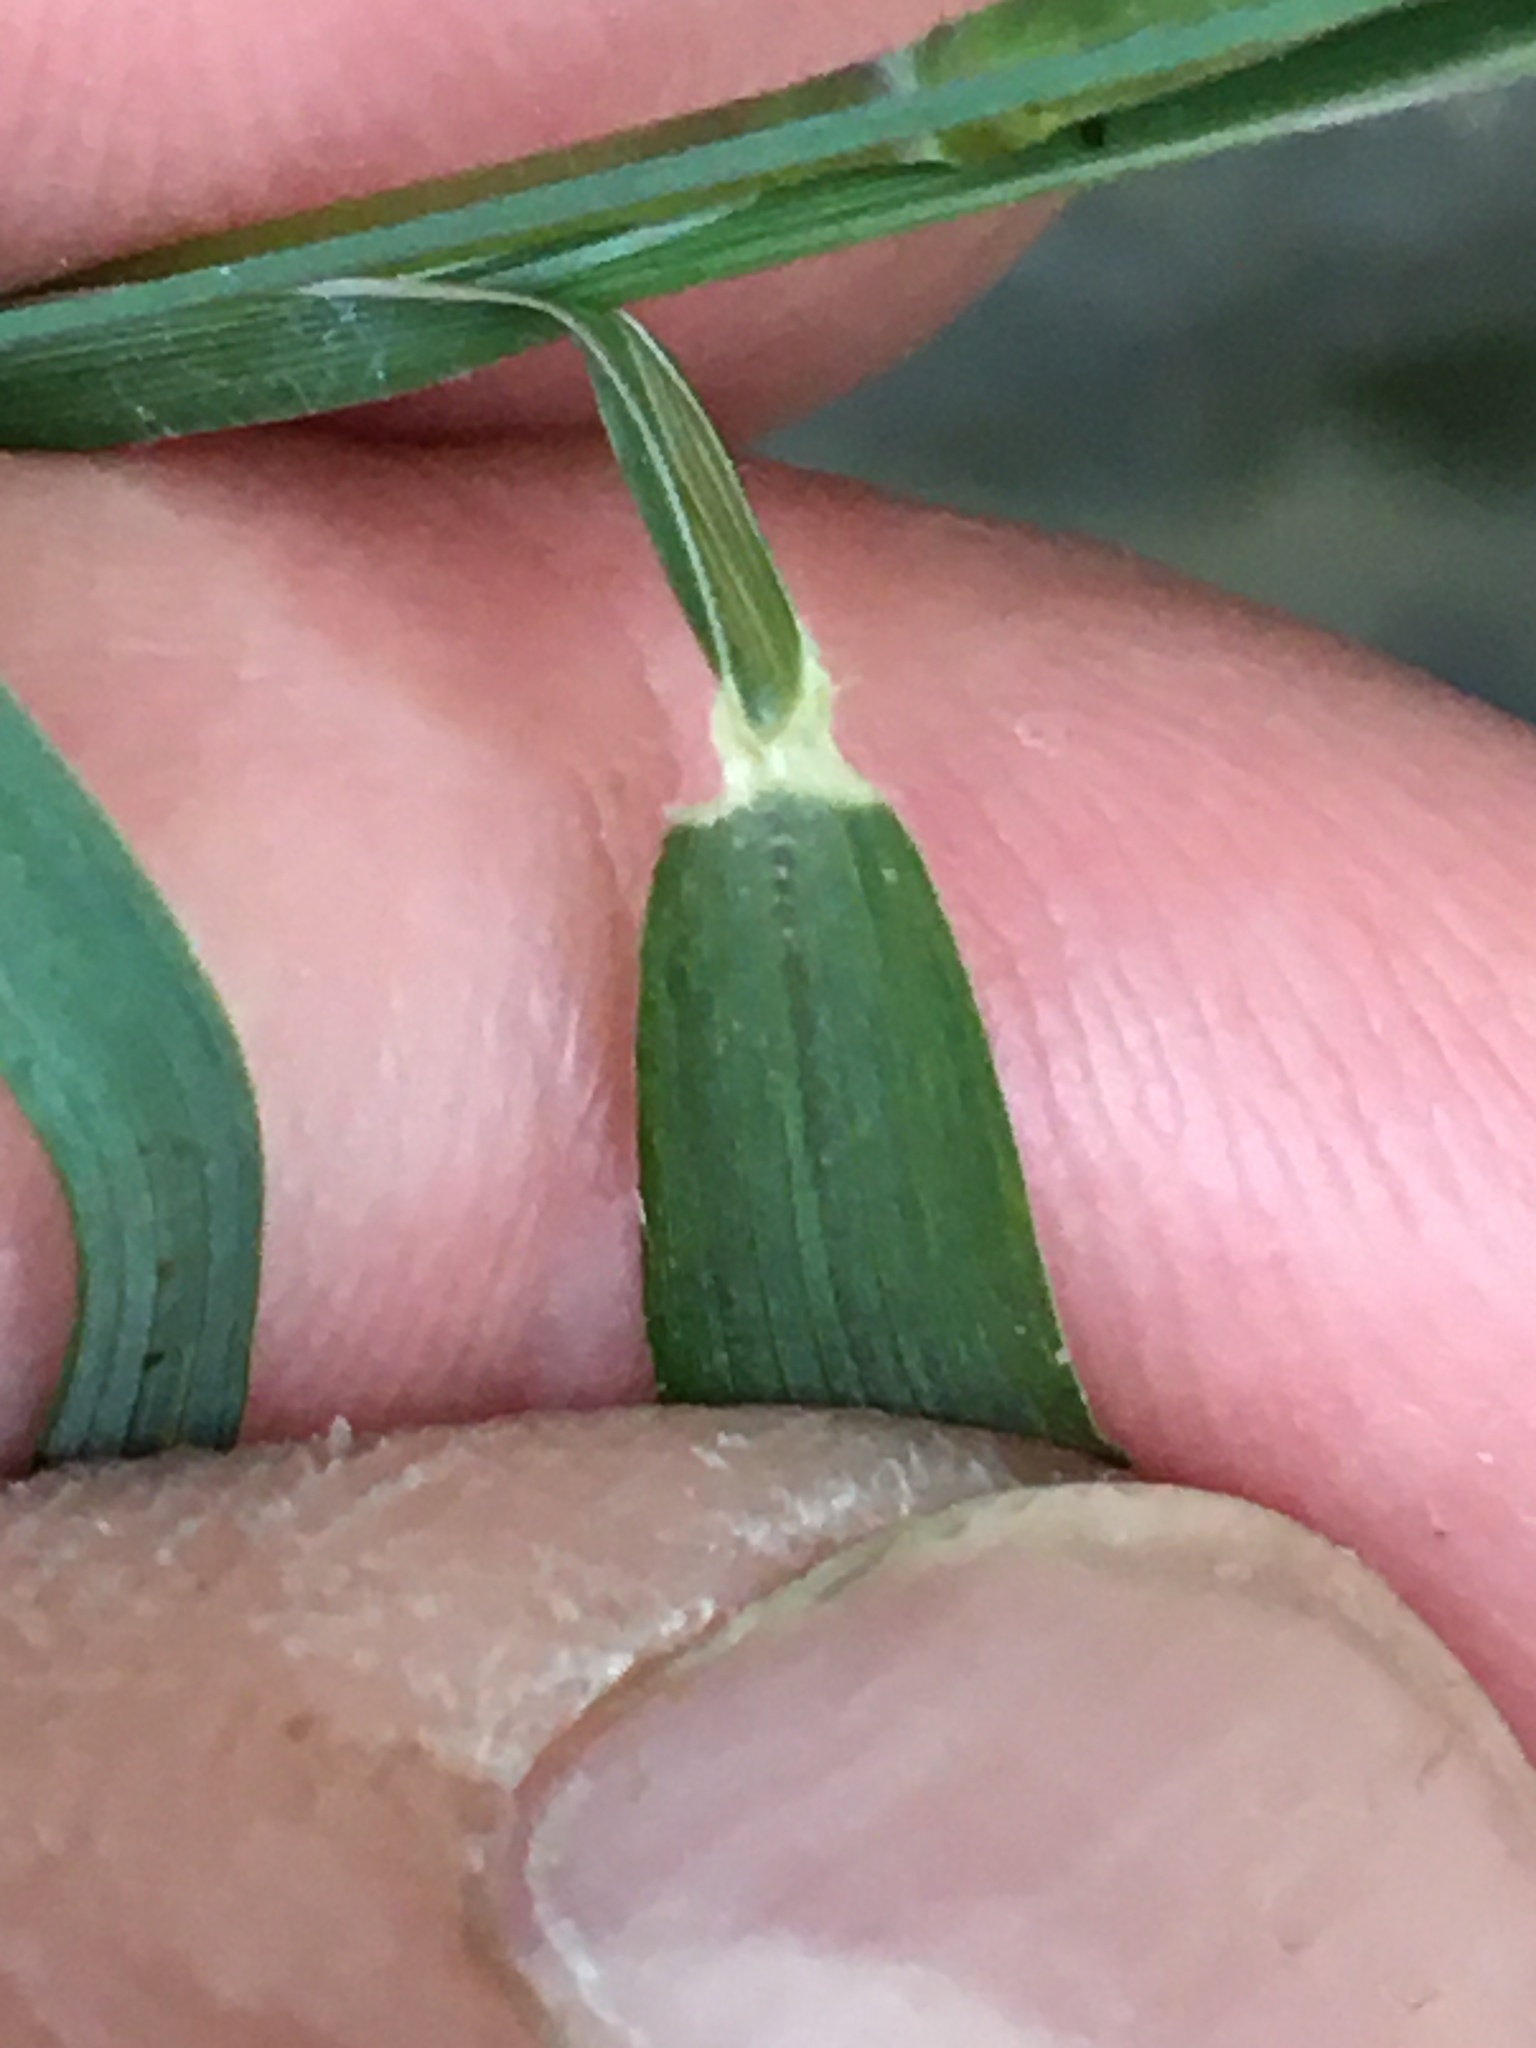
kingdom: Plantae
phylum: Tracheophyta
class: Liliopsida
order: Poales
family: Poaceae
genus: Muhlenbergia
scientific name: Muhlenbergia schreberi
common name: Nimblewill
